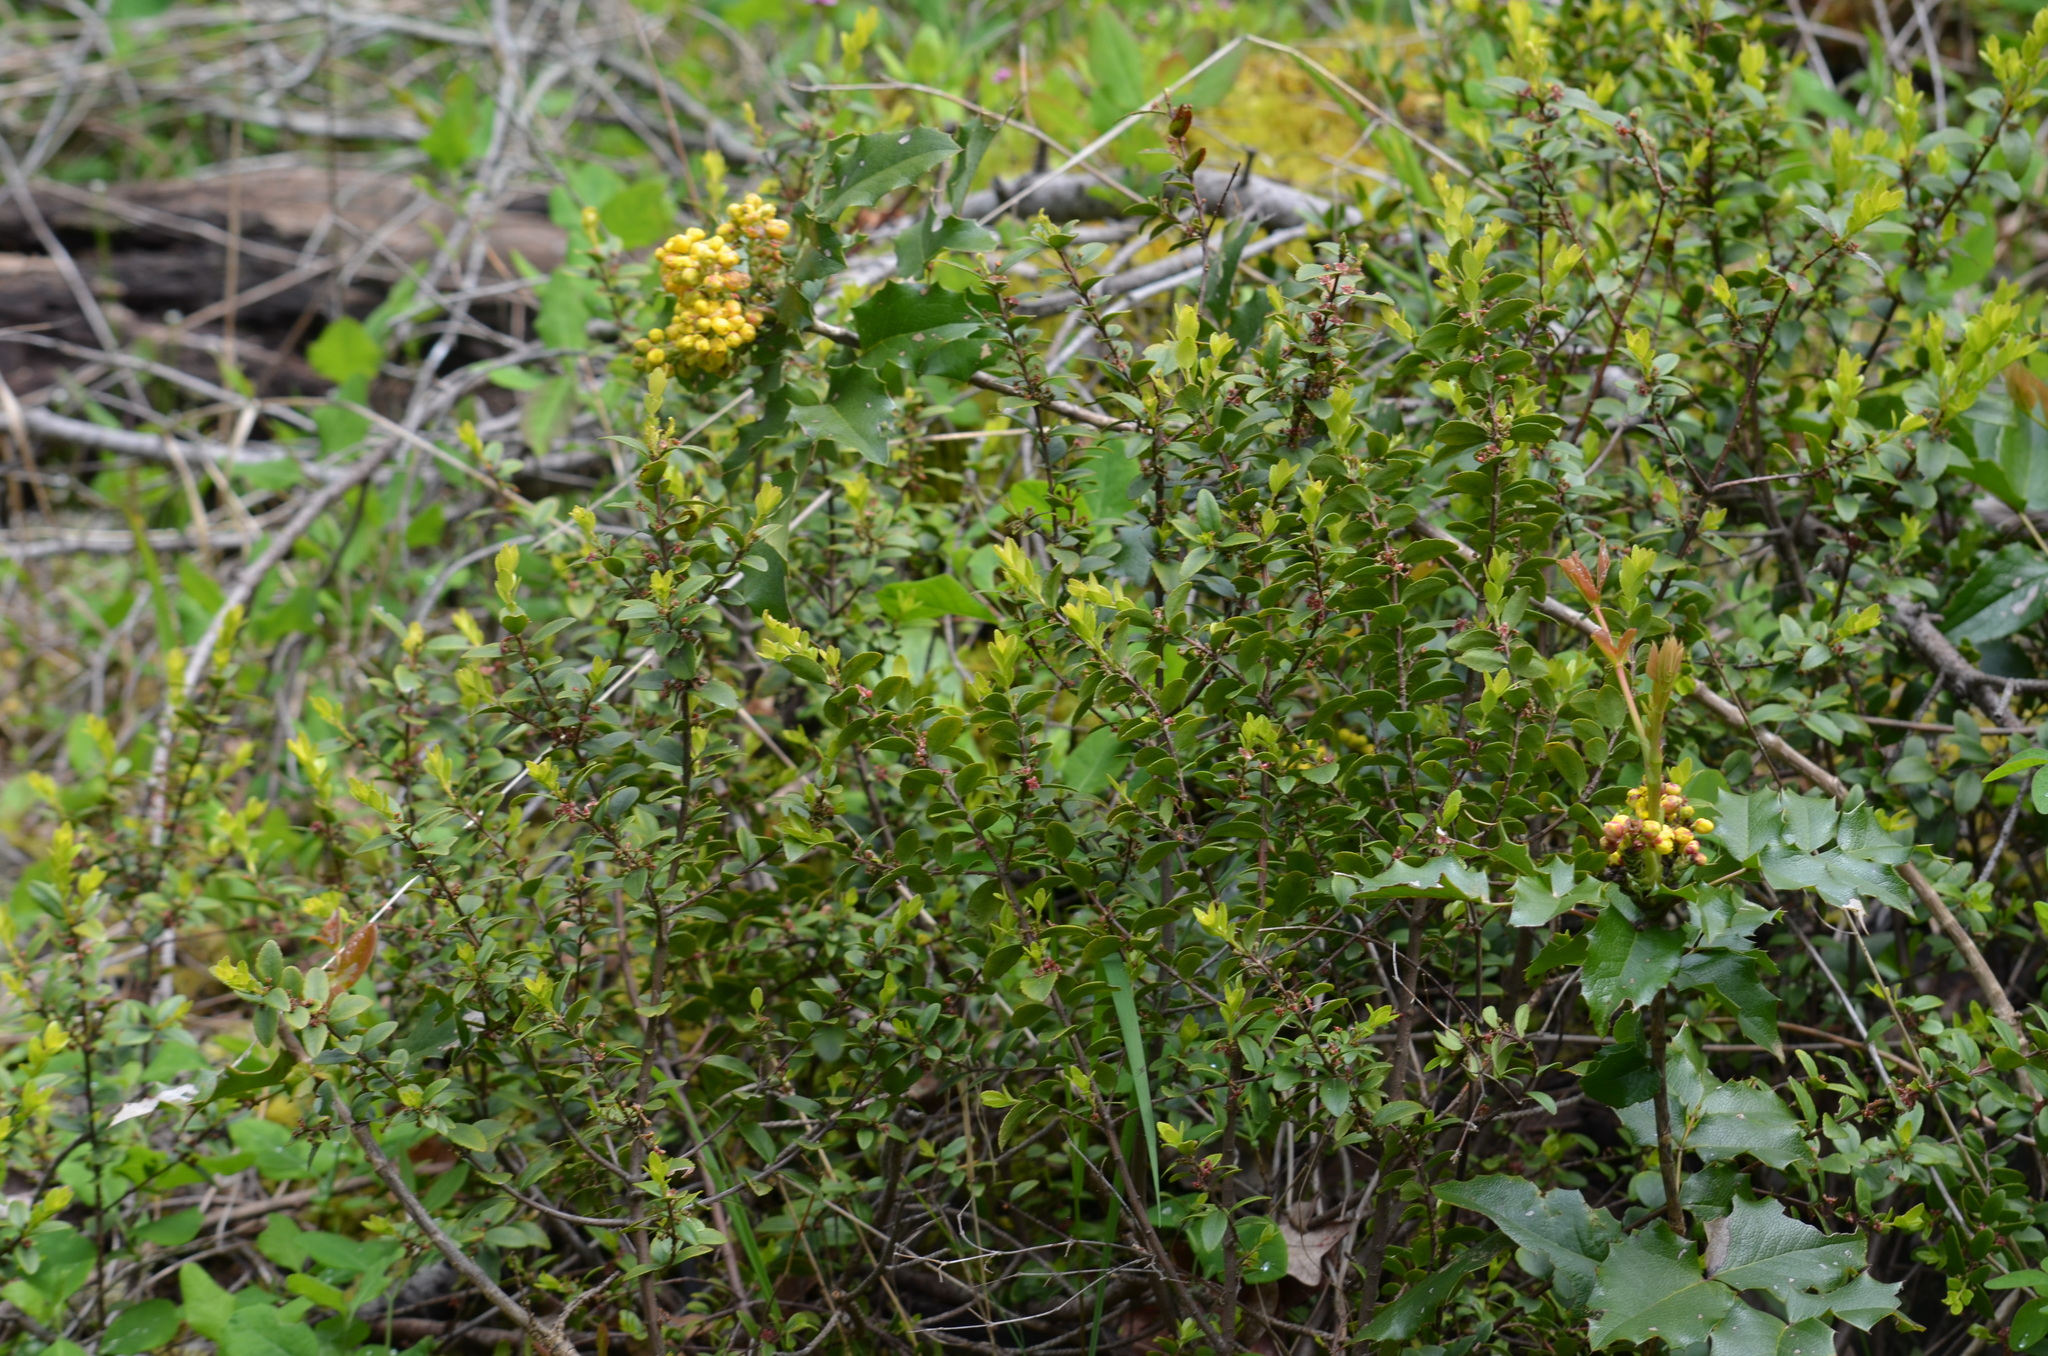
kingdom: Plantae
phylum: Tracheophyta
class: Magnoliopsida
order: Celastrales
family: Celastraceae
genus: Paxistima
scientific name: Paxistima myrsinites
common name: Mountain-lover
